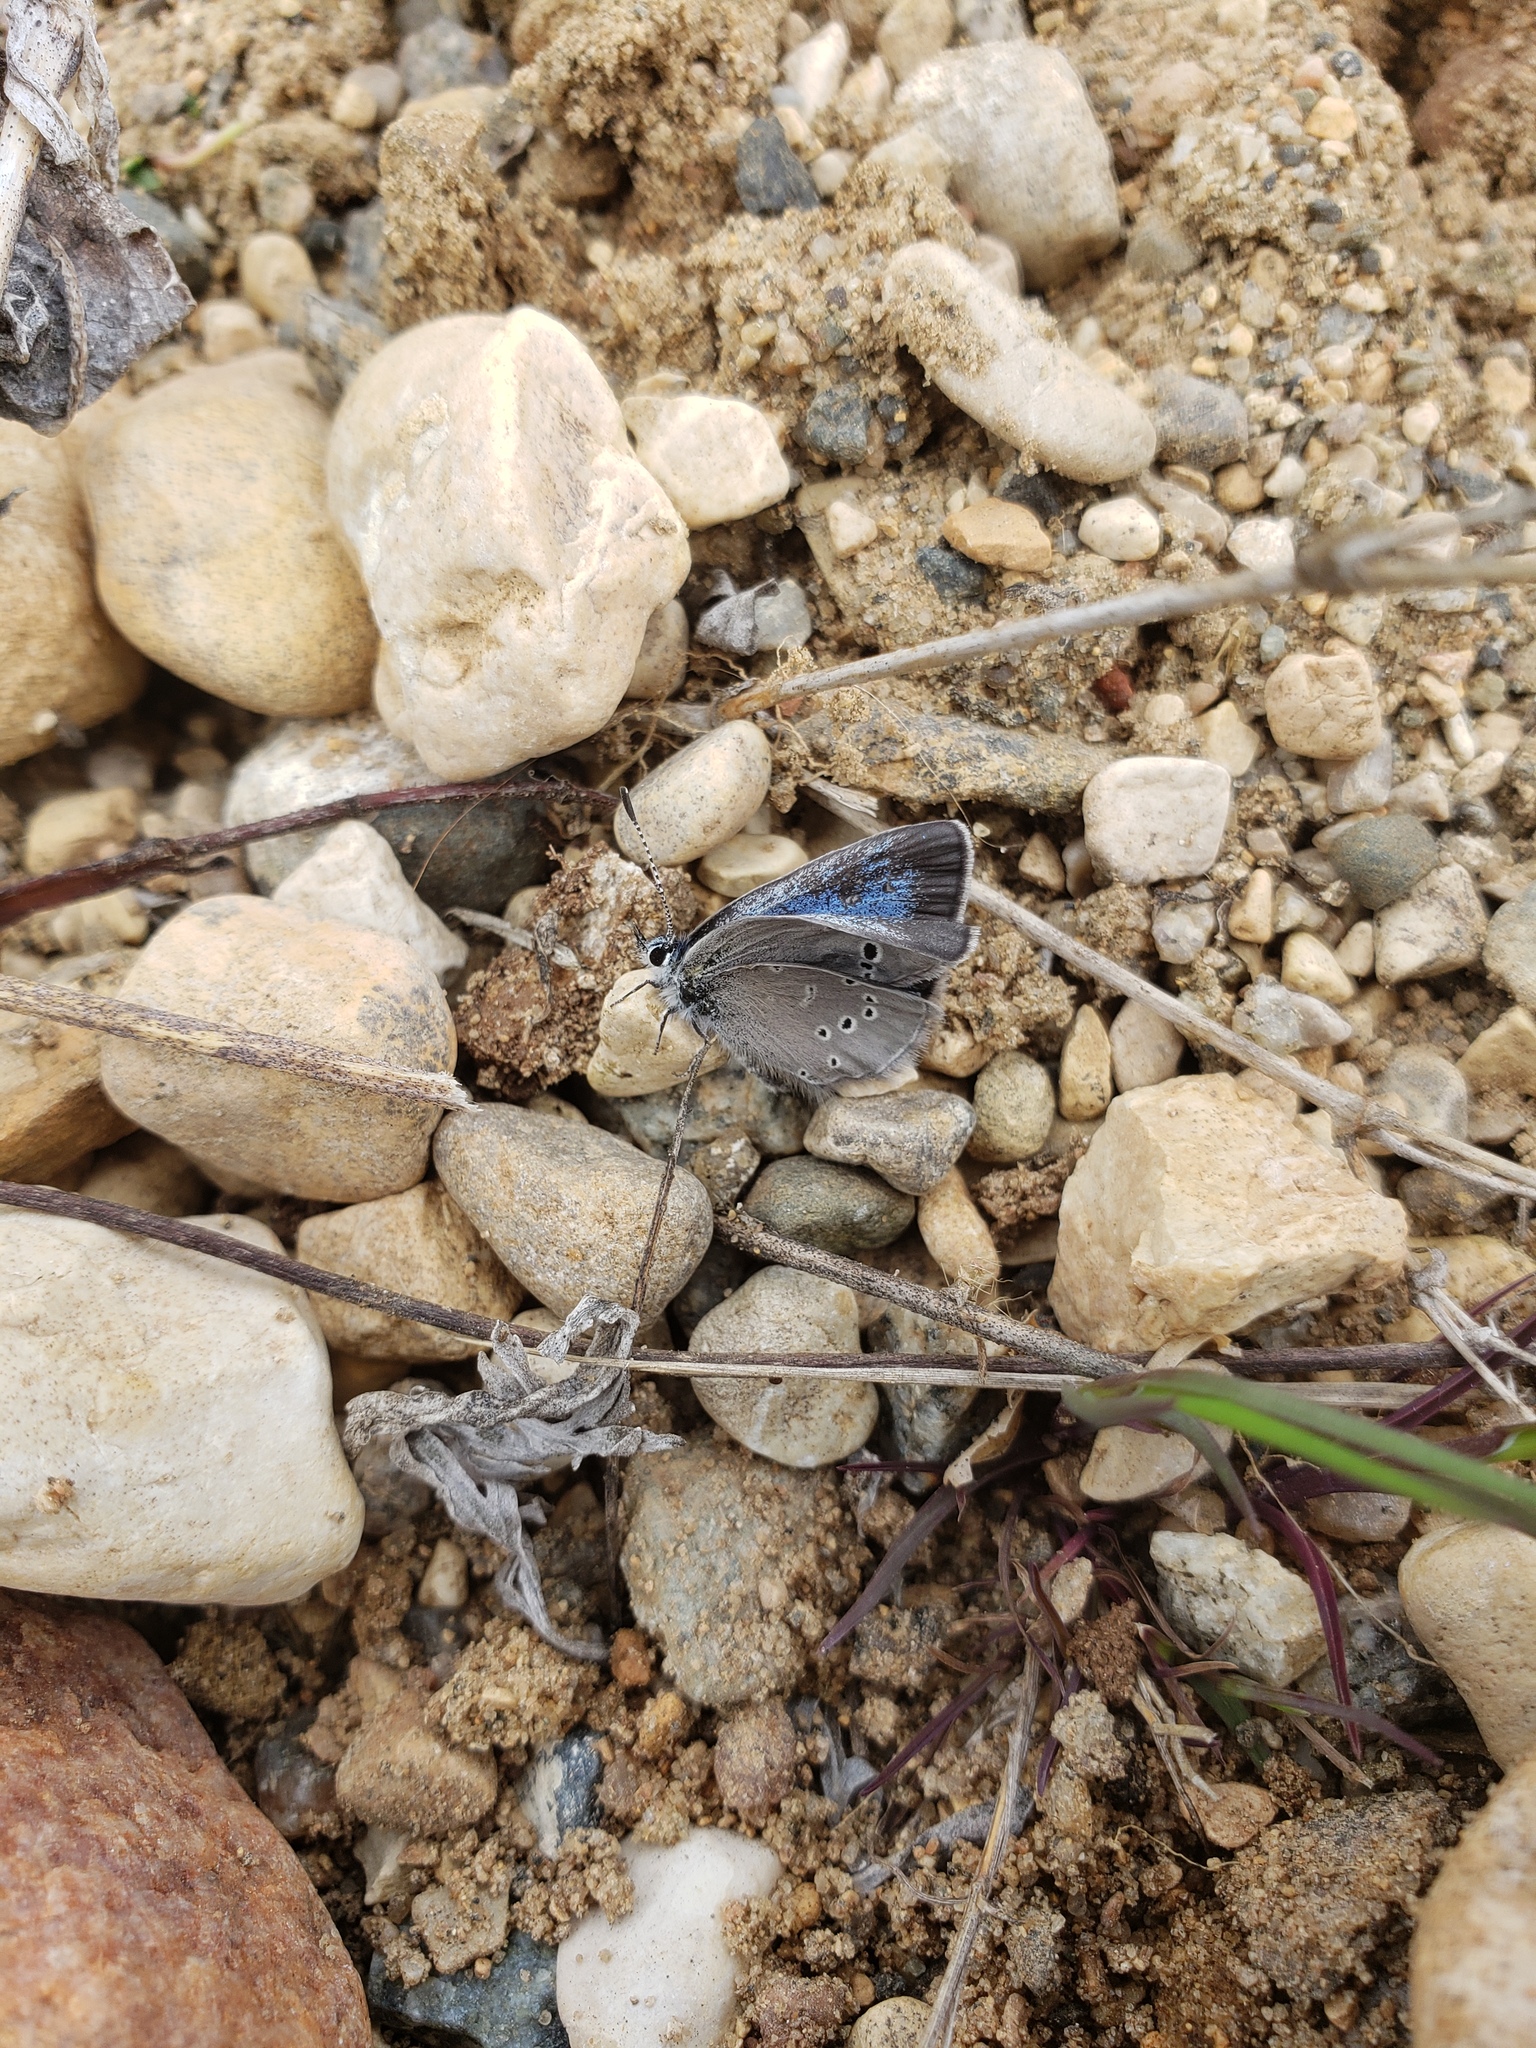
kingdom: Animalia
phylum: Arthropoda
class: Insecta
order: Lepidoptera
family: Lycaenidae
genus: Glaucopsyche
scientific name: Glaucopsyche lygdamus
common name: Silvery blue
